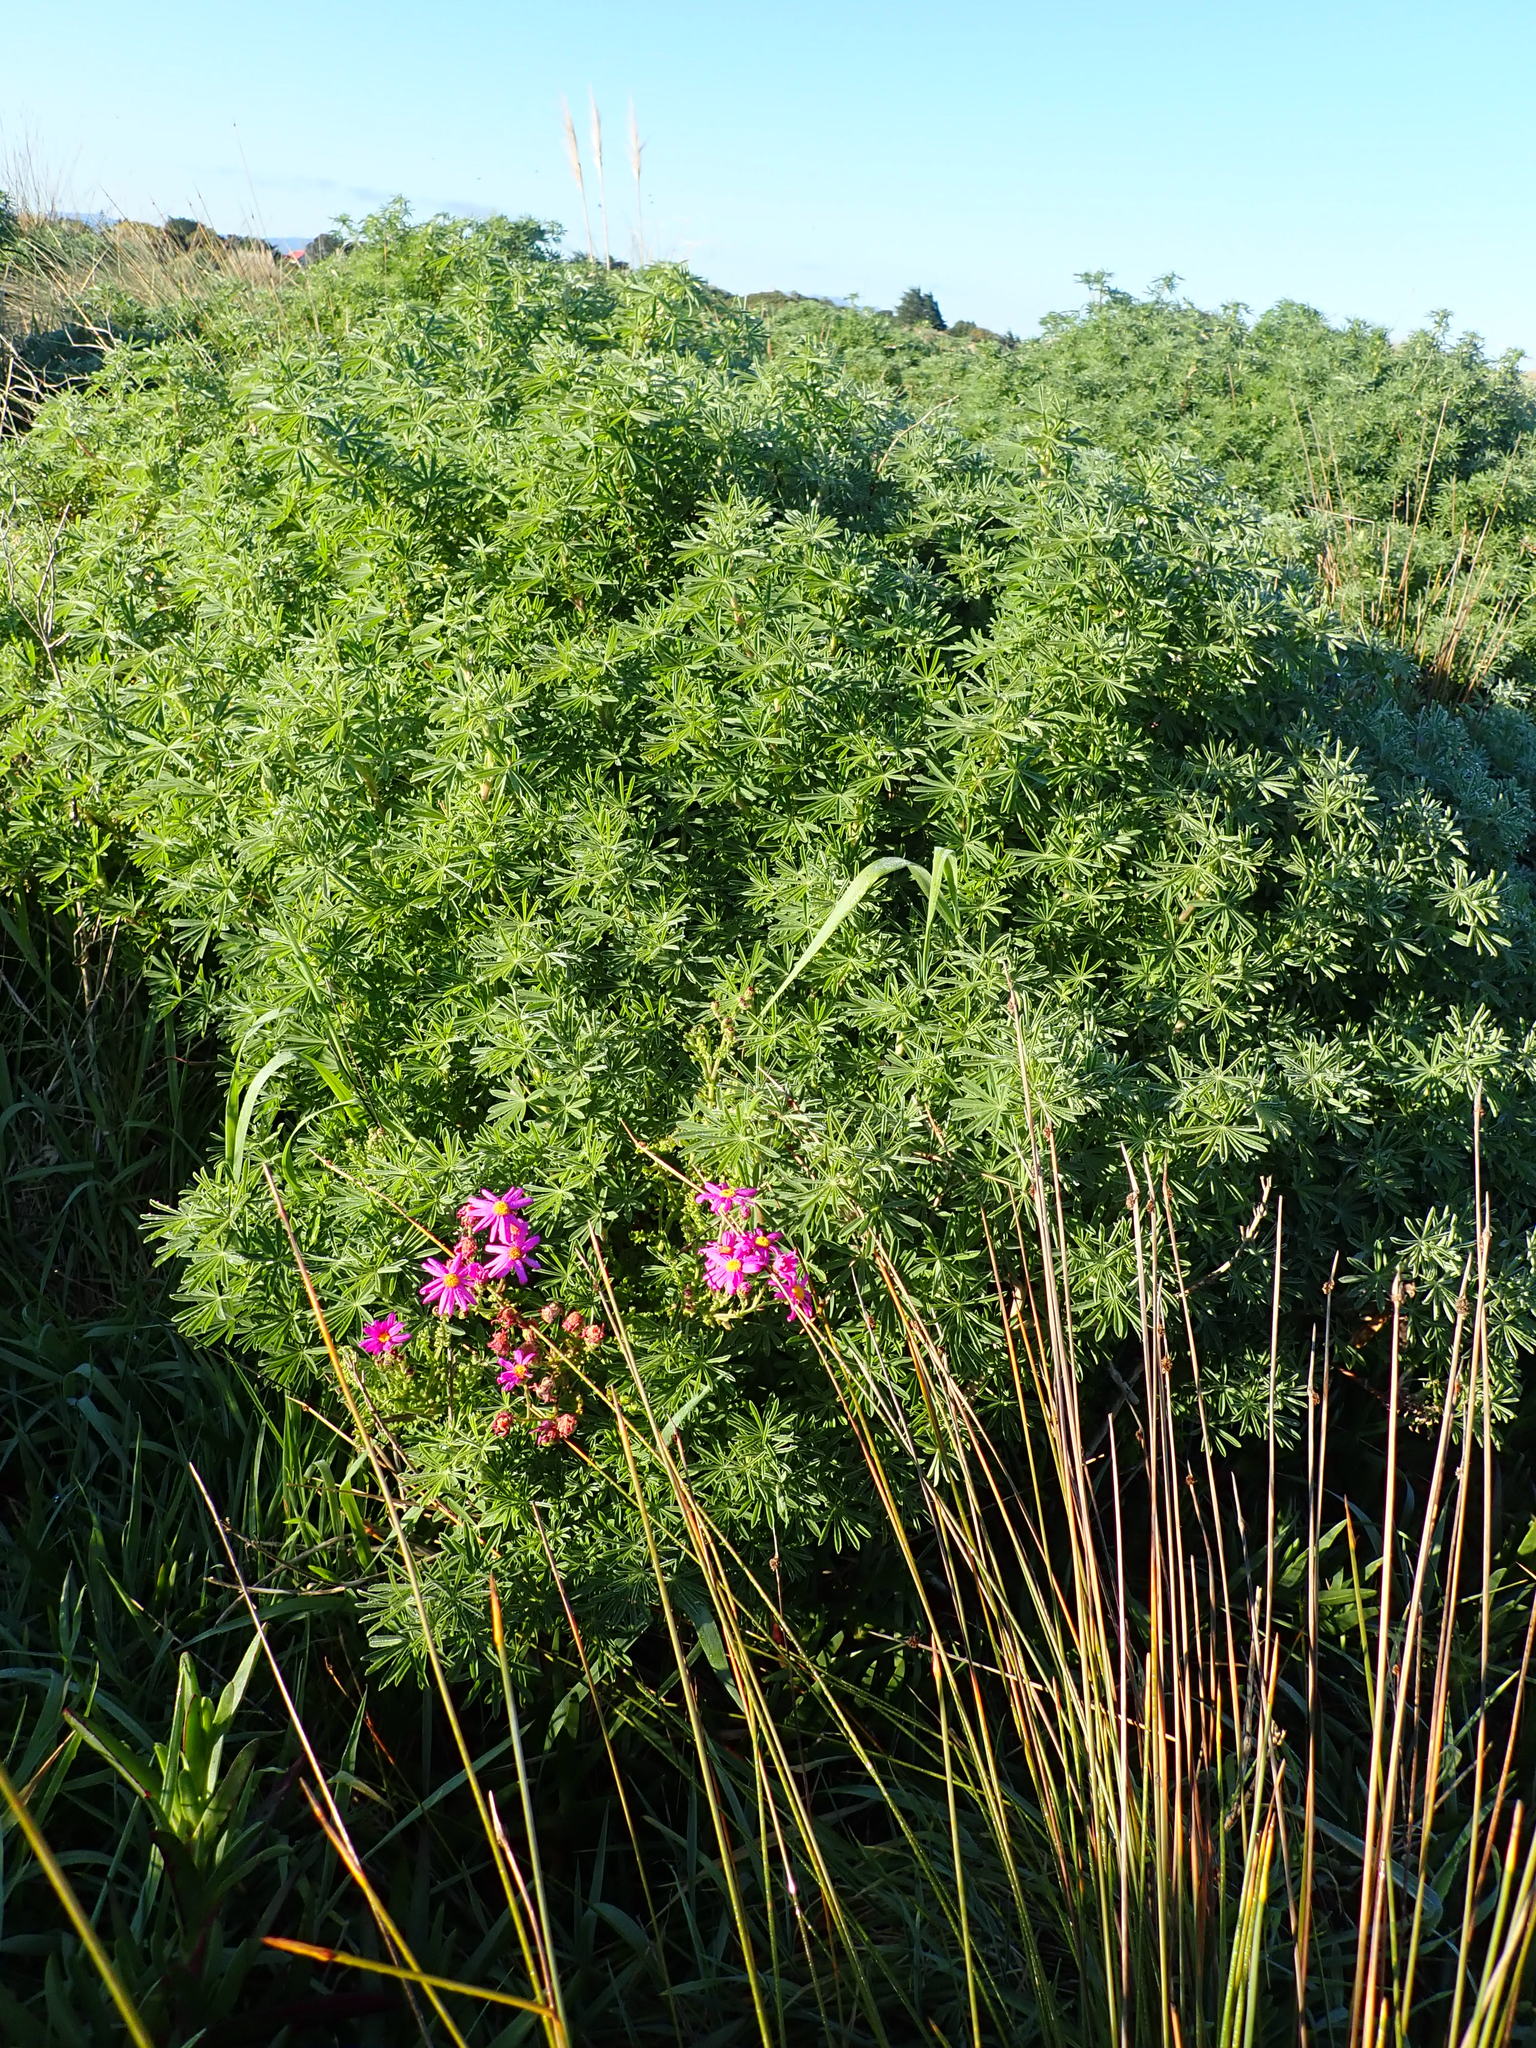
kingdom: Plantae
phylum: Tracheophyta
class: Magnoliopsida
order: Fabales
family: Fabaceae
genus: Lupinus
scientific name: Lupinus arboreus
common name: Yellow bush lupine
